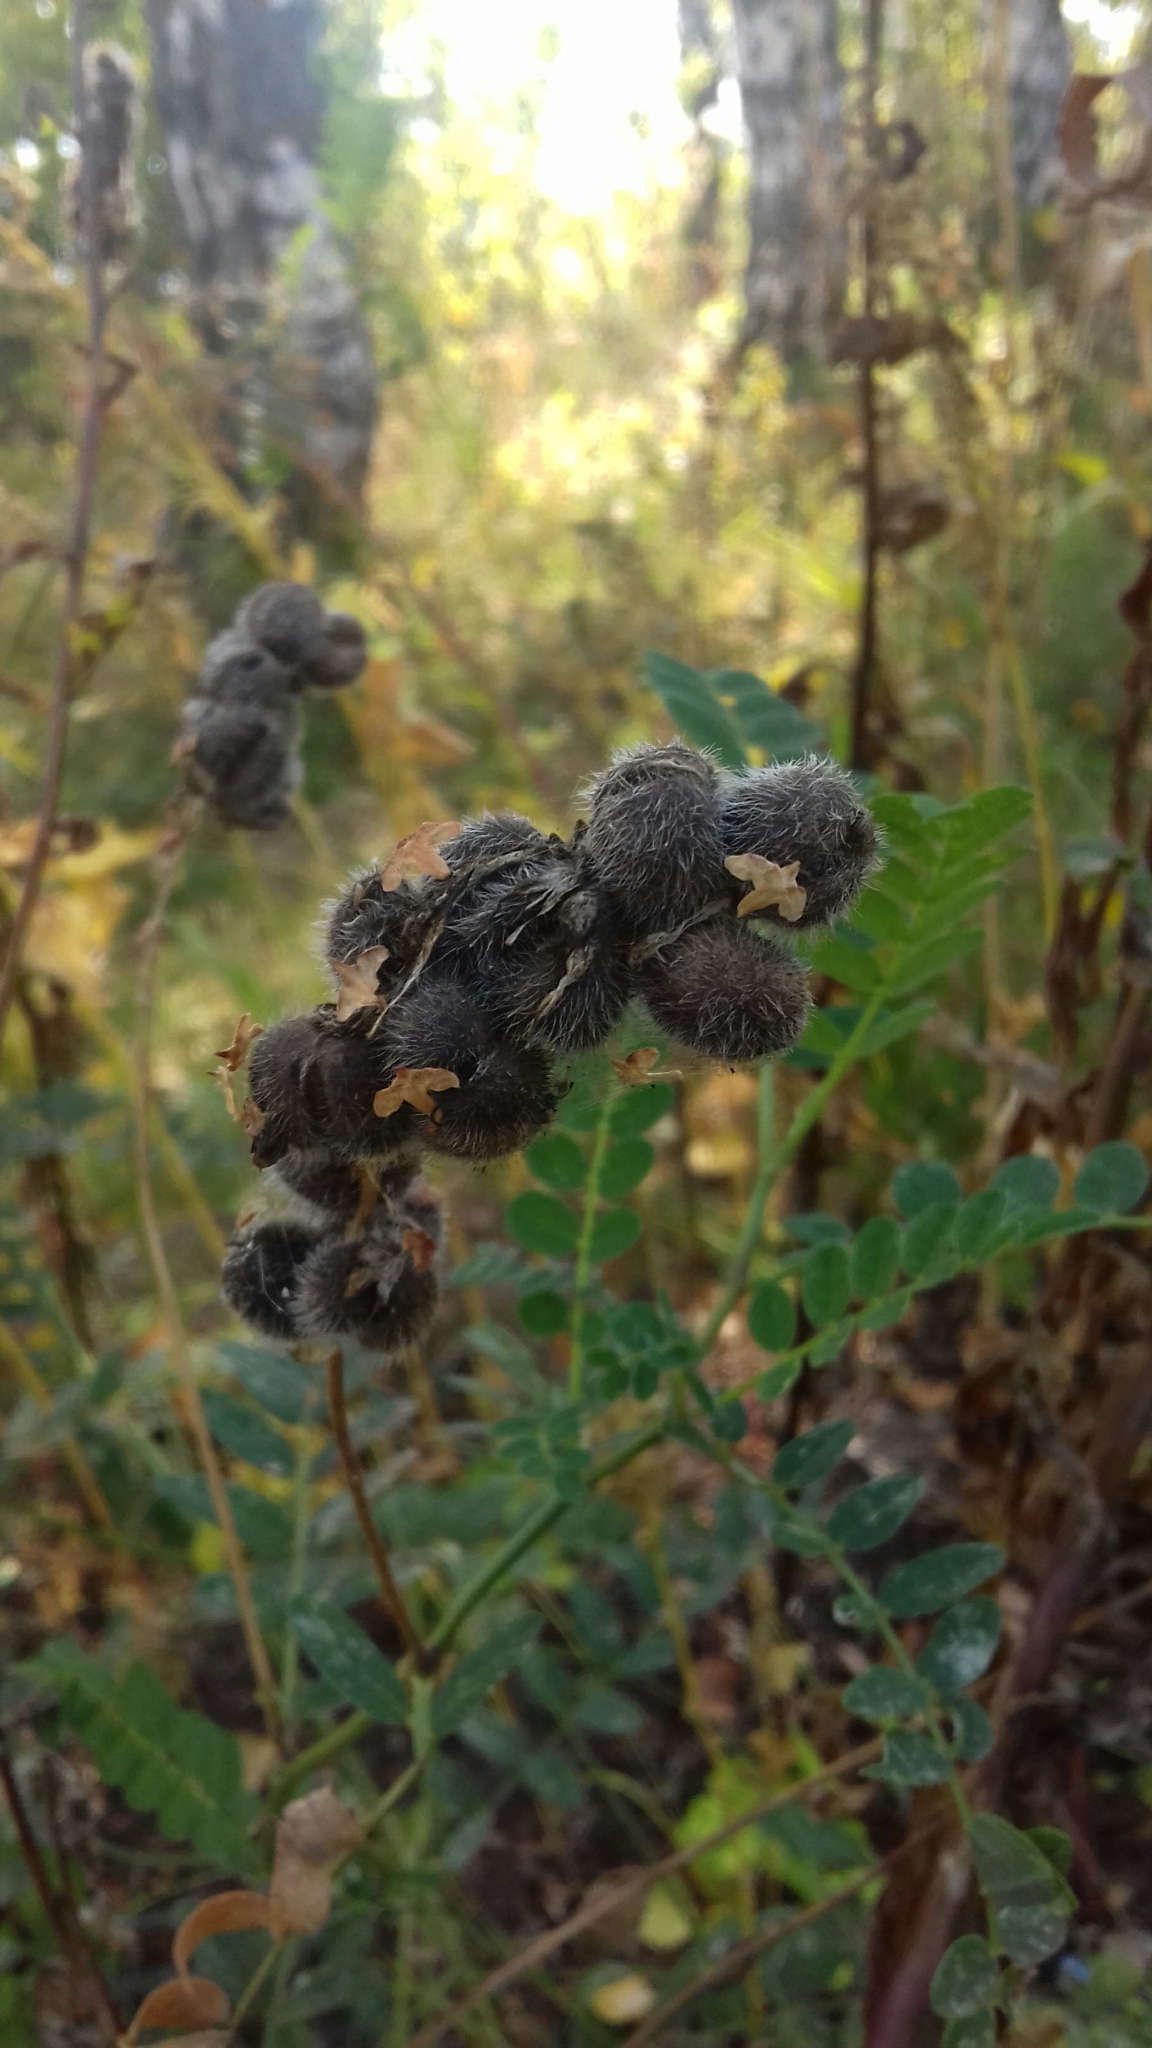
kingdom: Plantae
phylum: Tracheophyta
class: Magnoliopsida
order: Fabales
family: Fabaceae
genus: Astragalus
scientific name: Astragalus cicer
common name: Chick-pea milk-vetch
